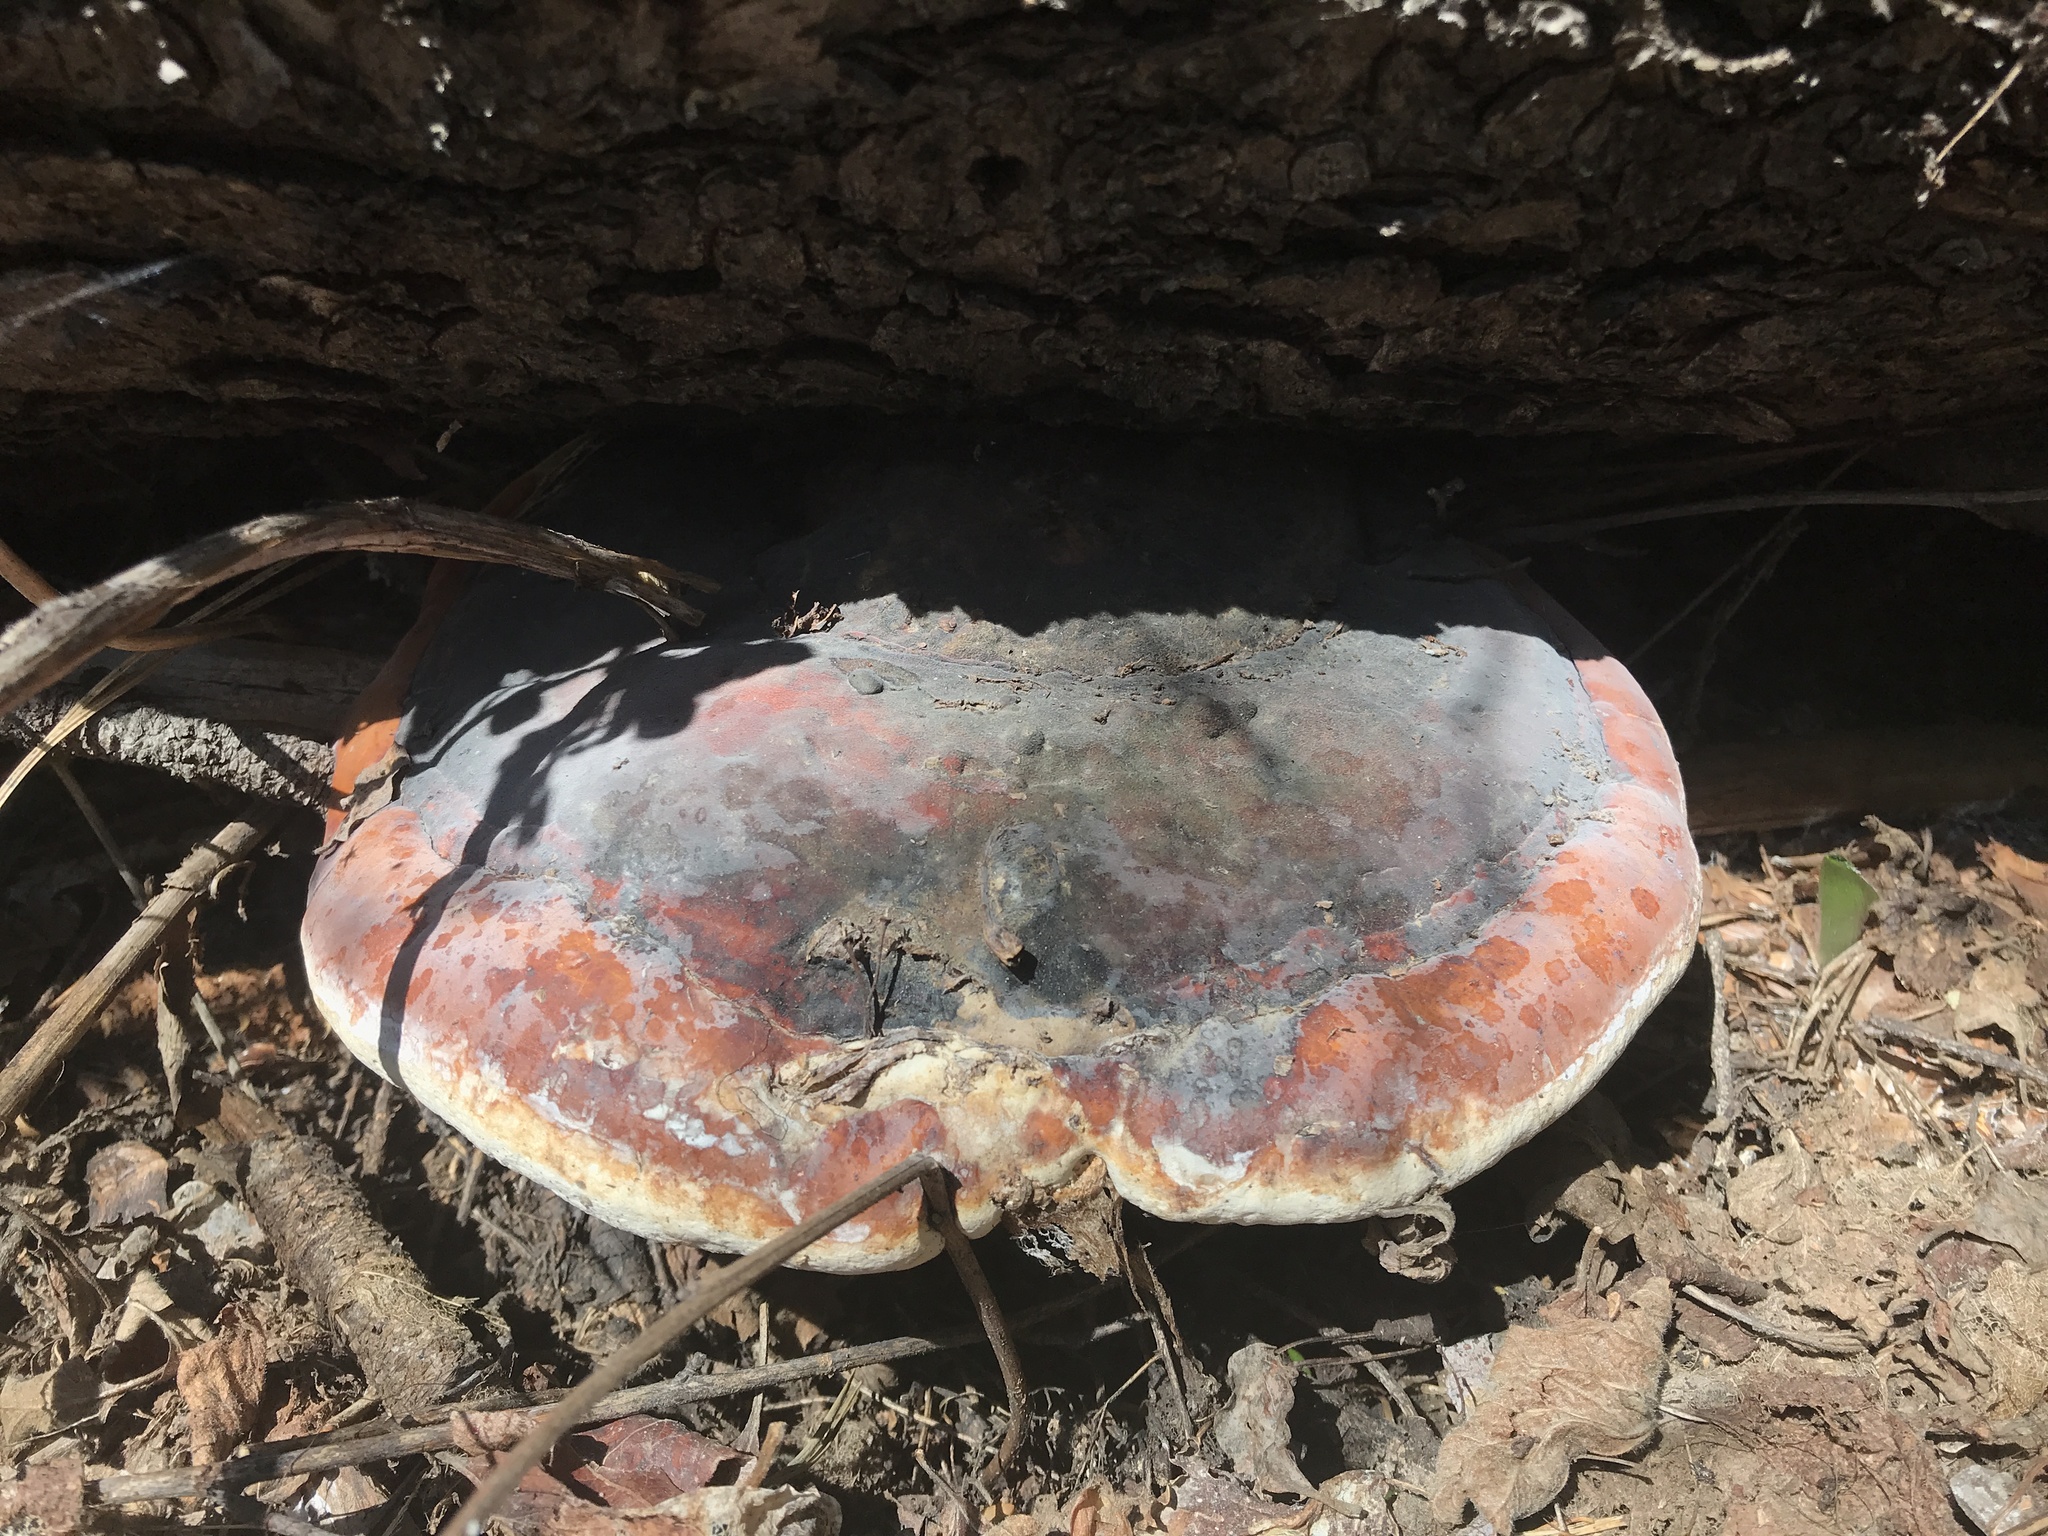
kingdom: Fungi
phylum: Basidiomycota
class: Agaricomycetes
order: Polyporales
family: Fomitopsidaceae
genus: Fomitopsis
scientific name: Fomitopsis mounceae
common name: Northern red belt
